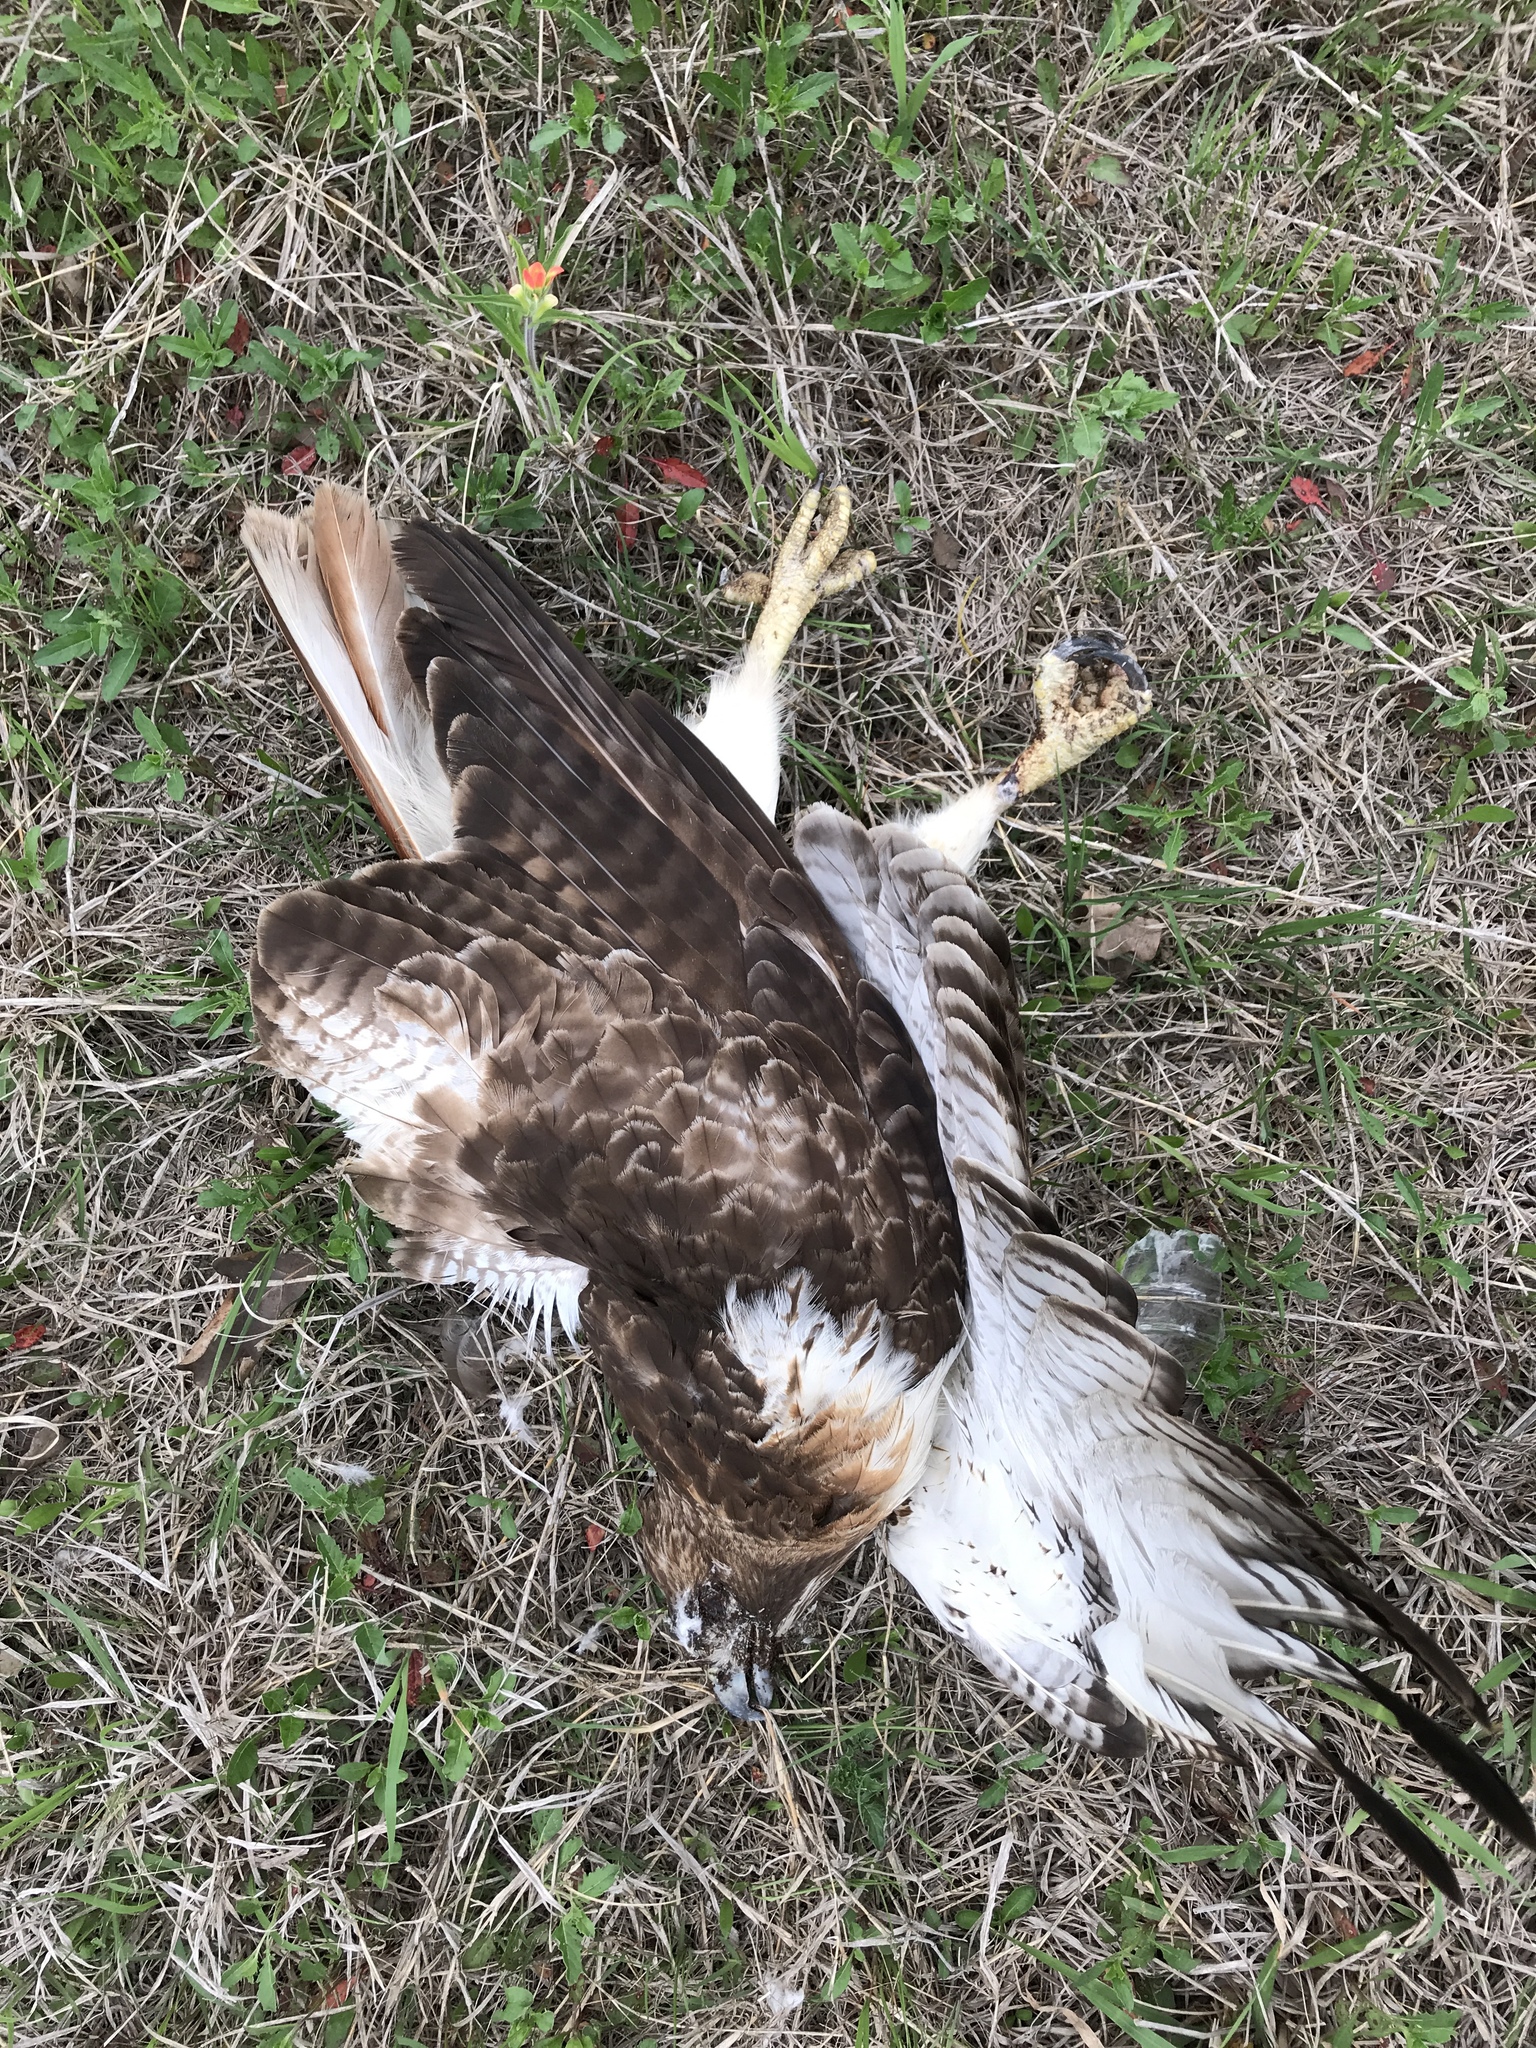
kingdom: Animalia
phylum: Chordata
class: Aves
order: Accipitriformes
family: Accipitridae
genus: Buteo
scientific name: Buteo jamaicensis
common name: Red-tailed hawk
